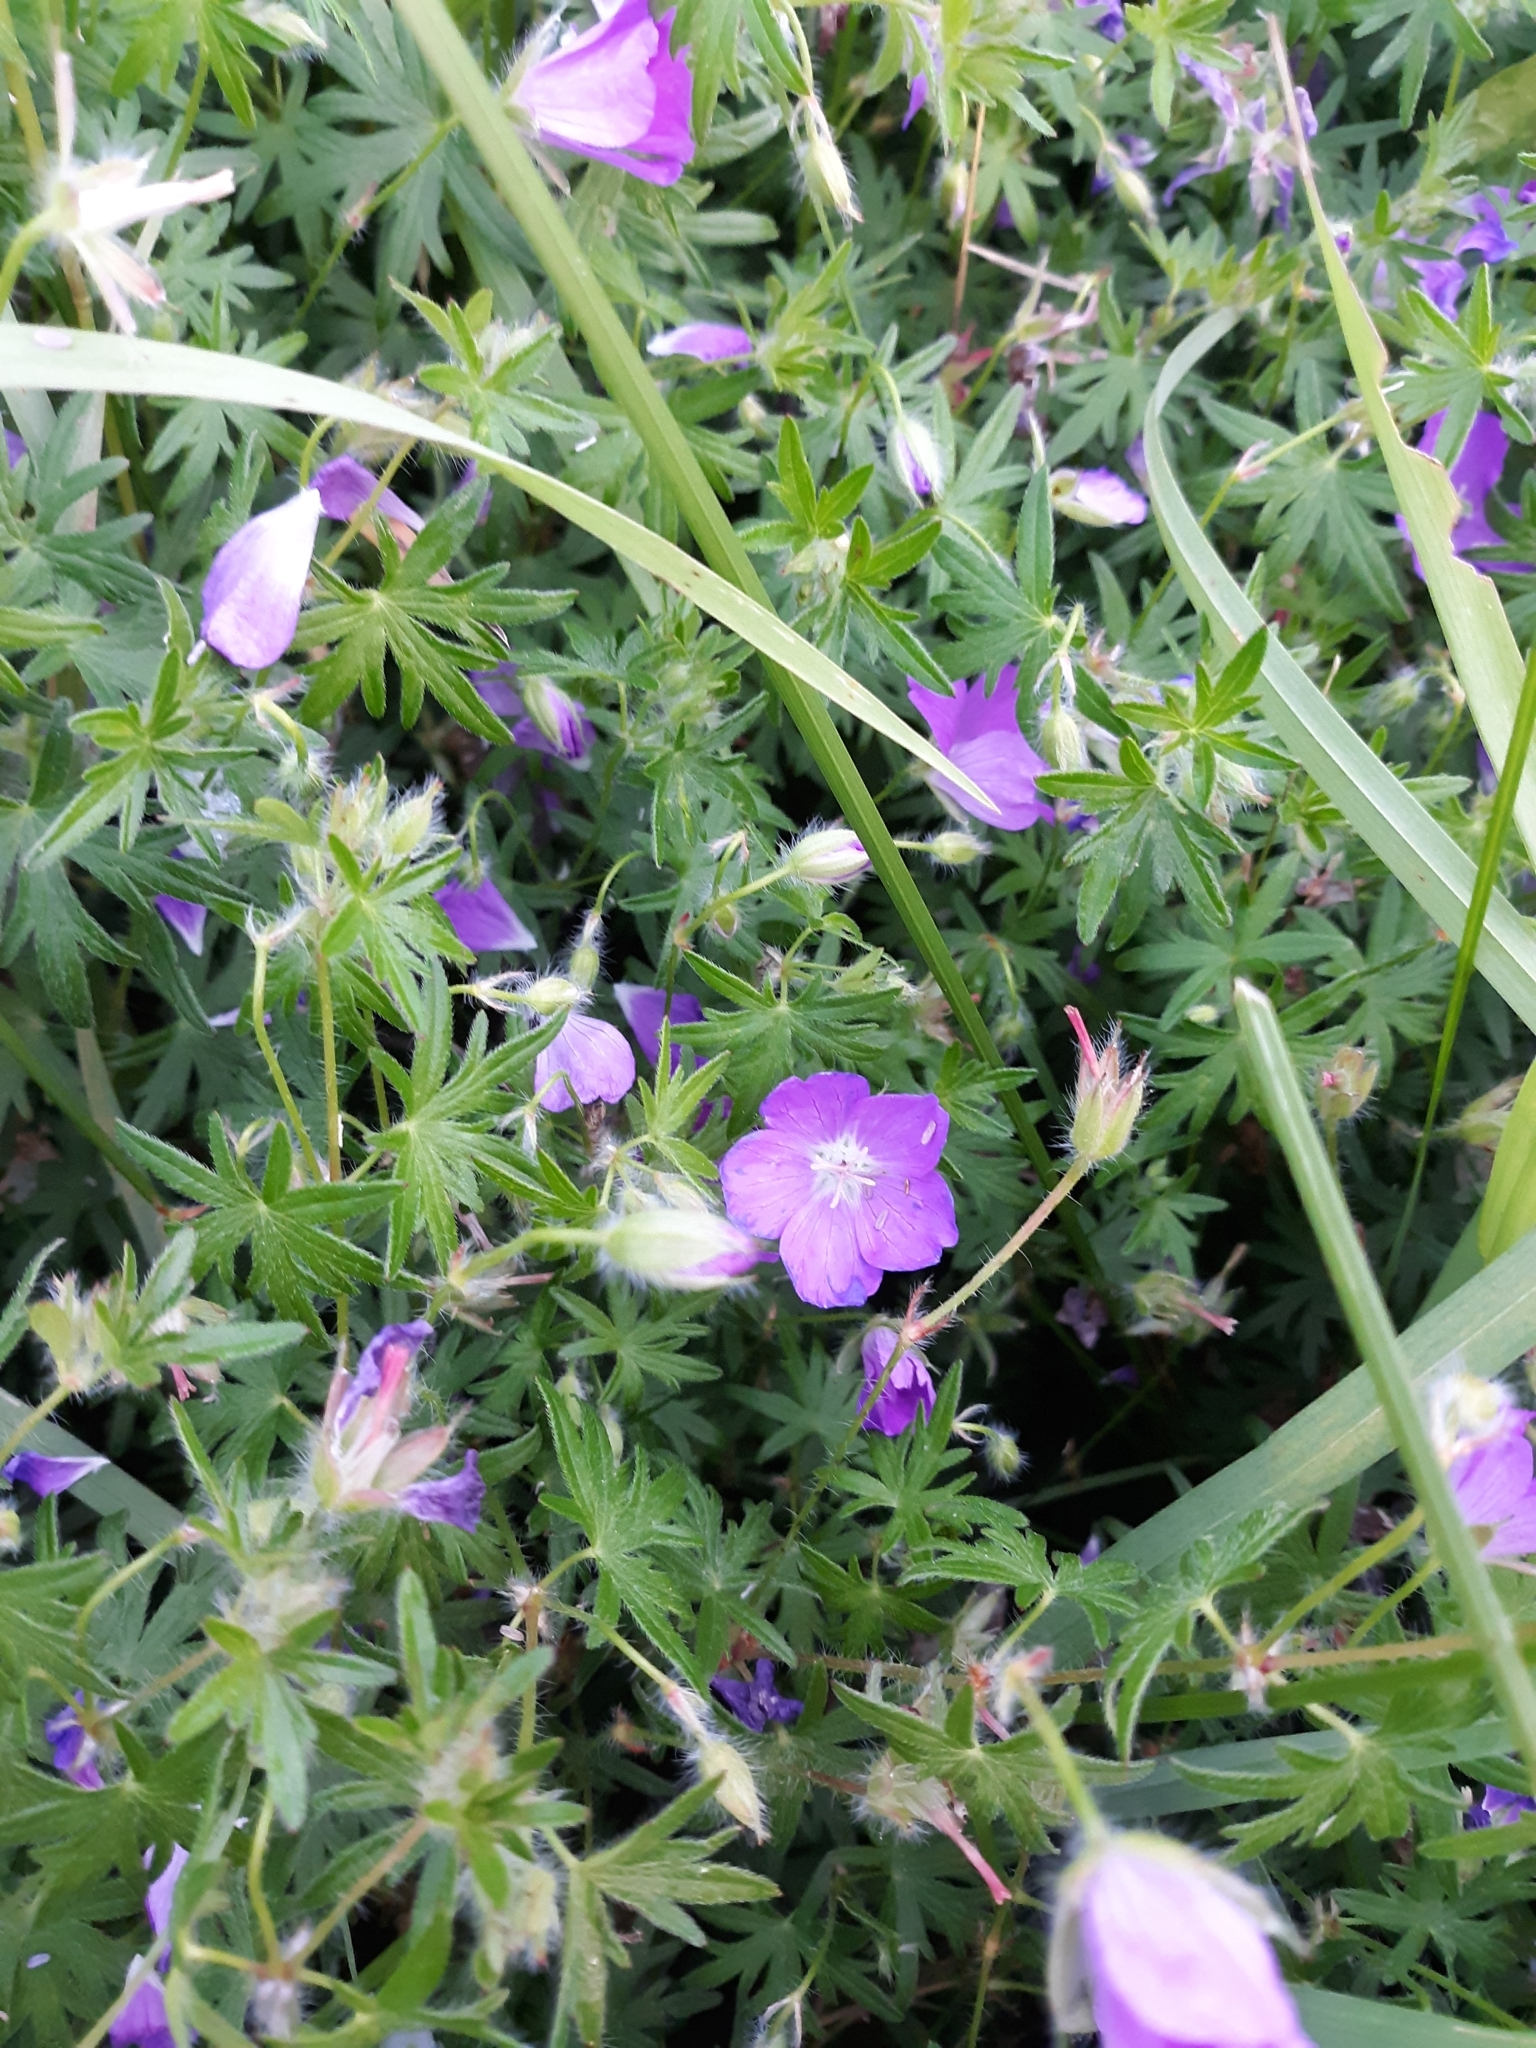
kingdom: Plantae
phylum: Tracheophyta
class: Magnoliopsida
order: Geraniales
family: Geraniaceae
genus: Geranium
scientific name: Geranium sanguineum
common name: Bloody crane's-bill
